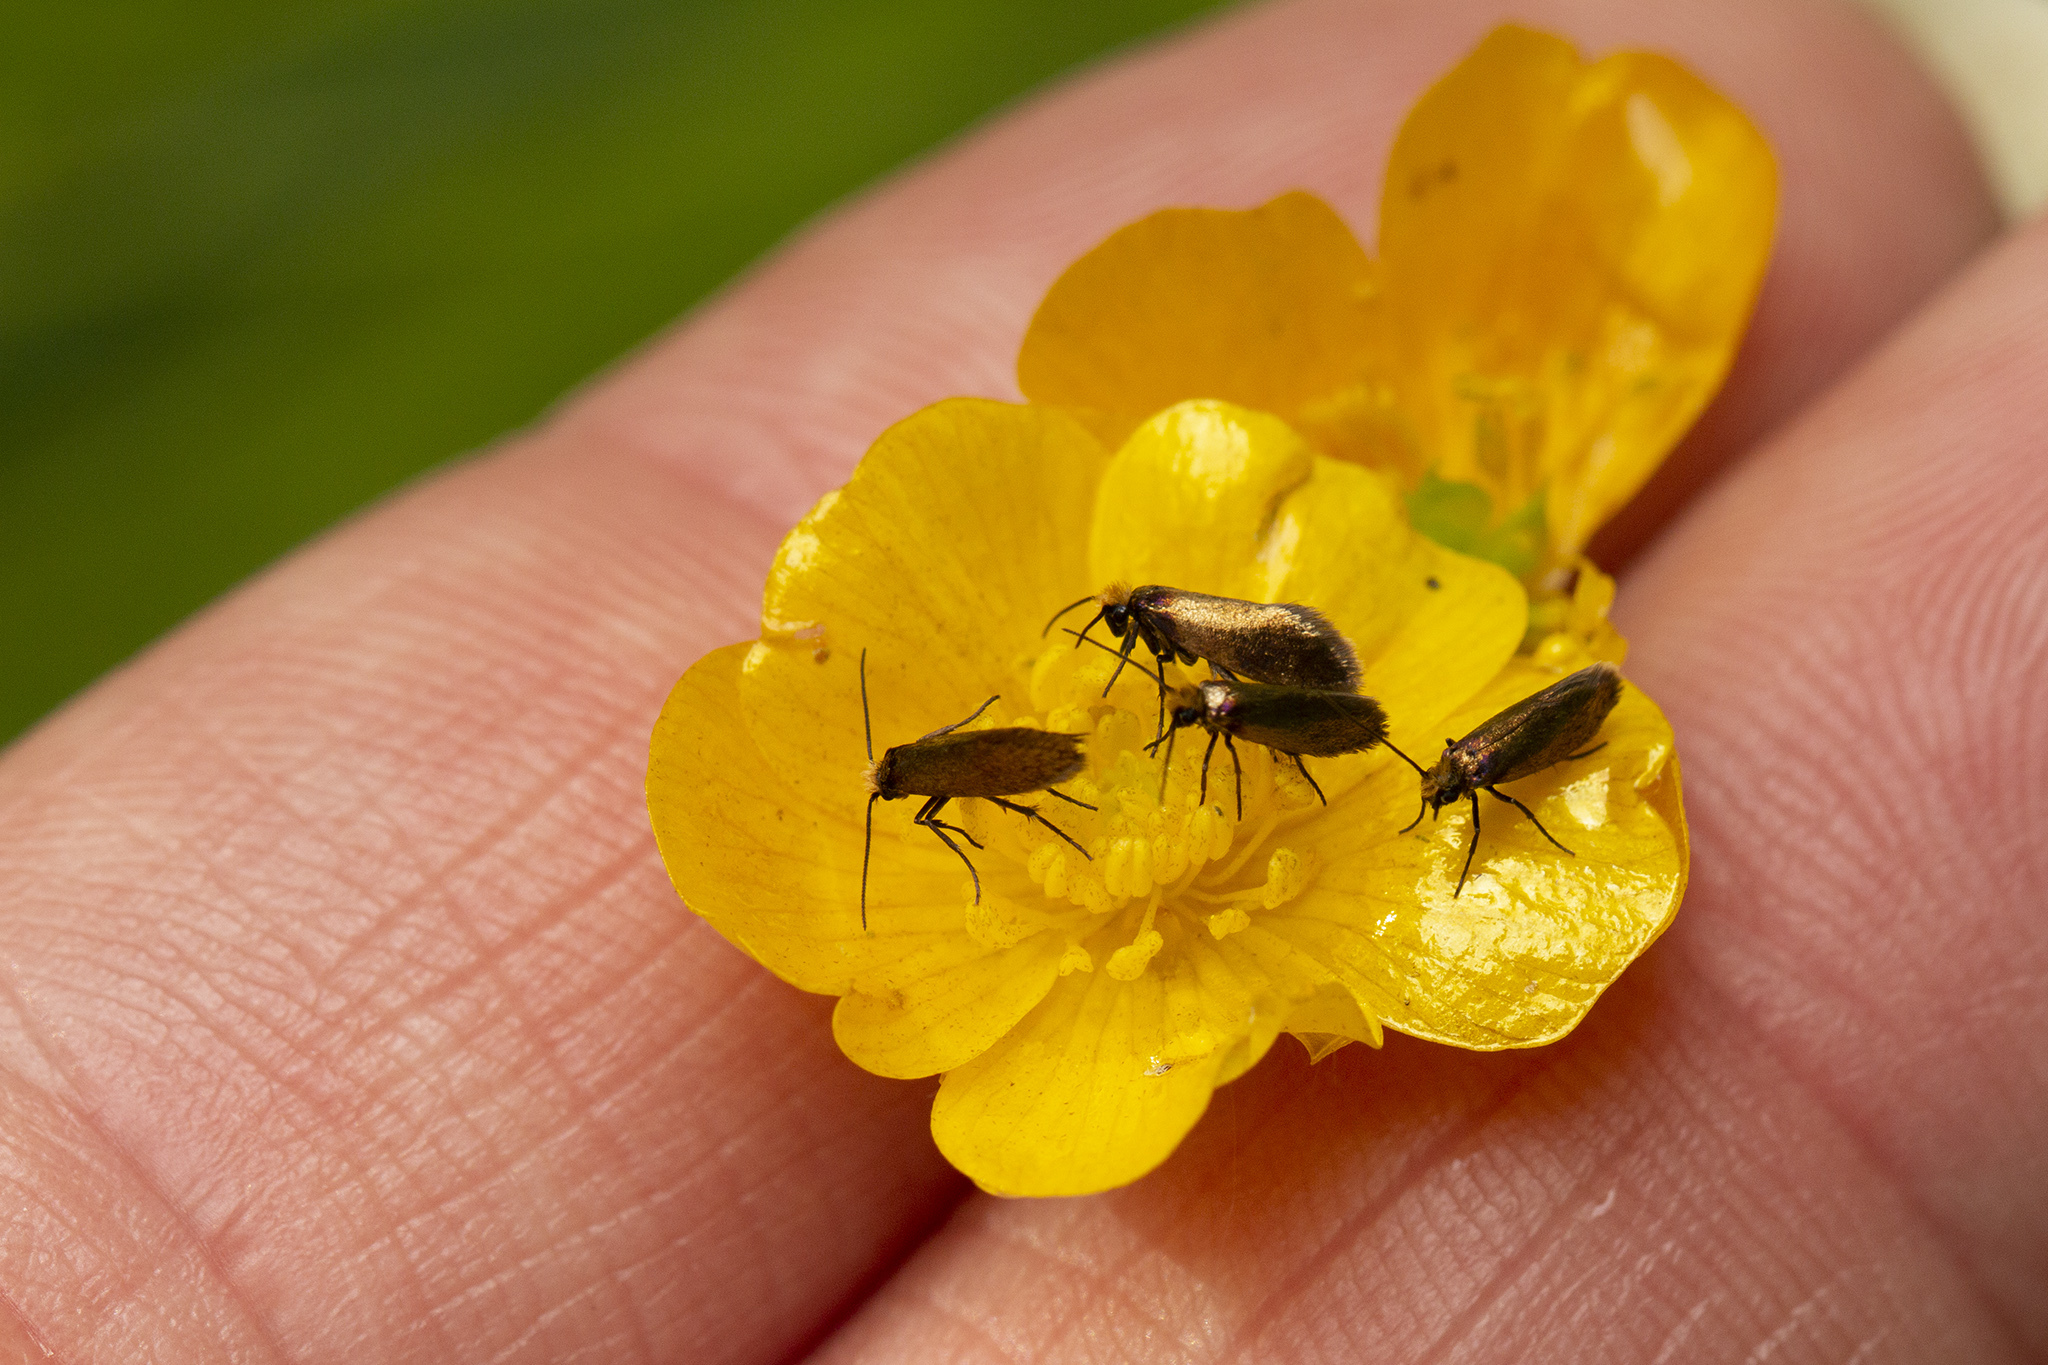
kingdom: Animalia
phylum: Arthropoda
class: Insecta
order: Lepidoptera
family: Micropterigidae
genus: Micropterix
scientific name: Micropterix calthella
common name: Plain gold
